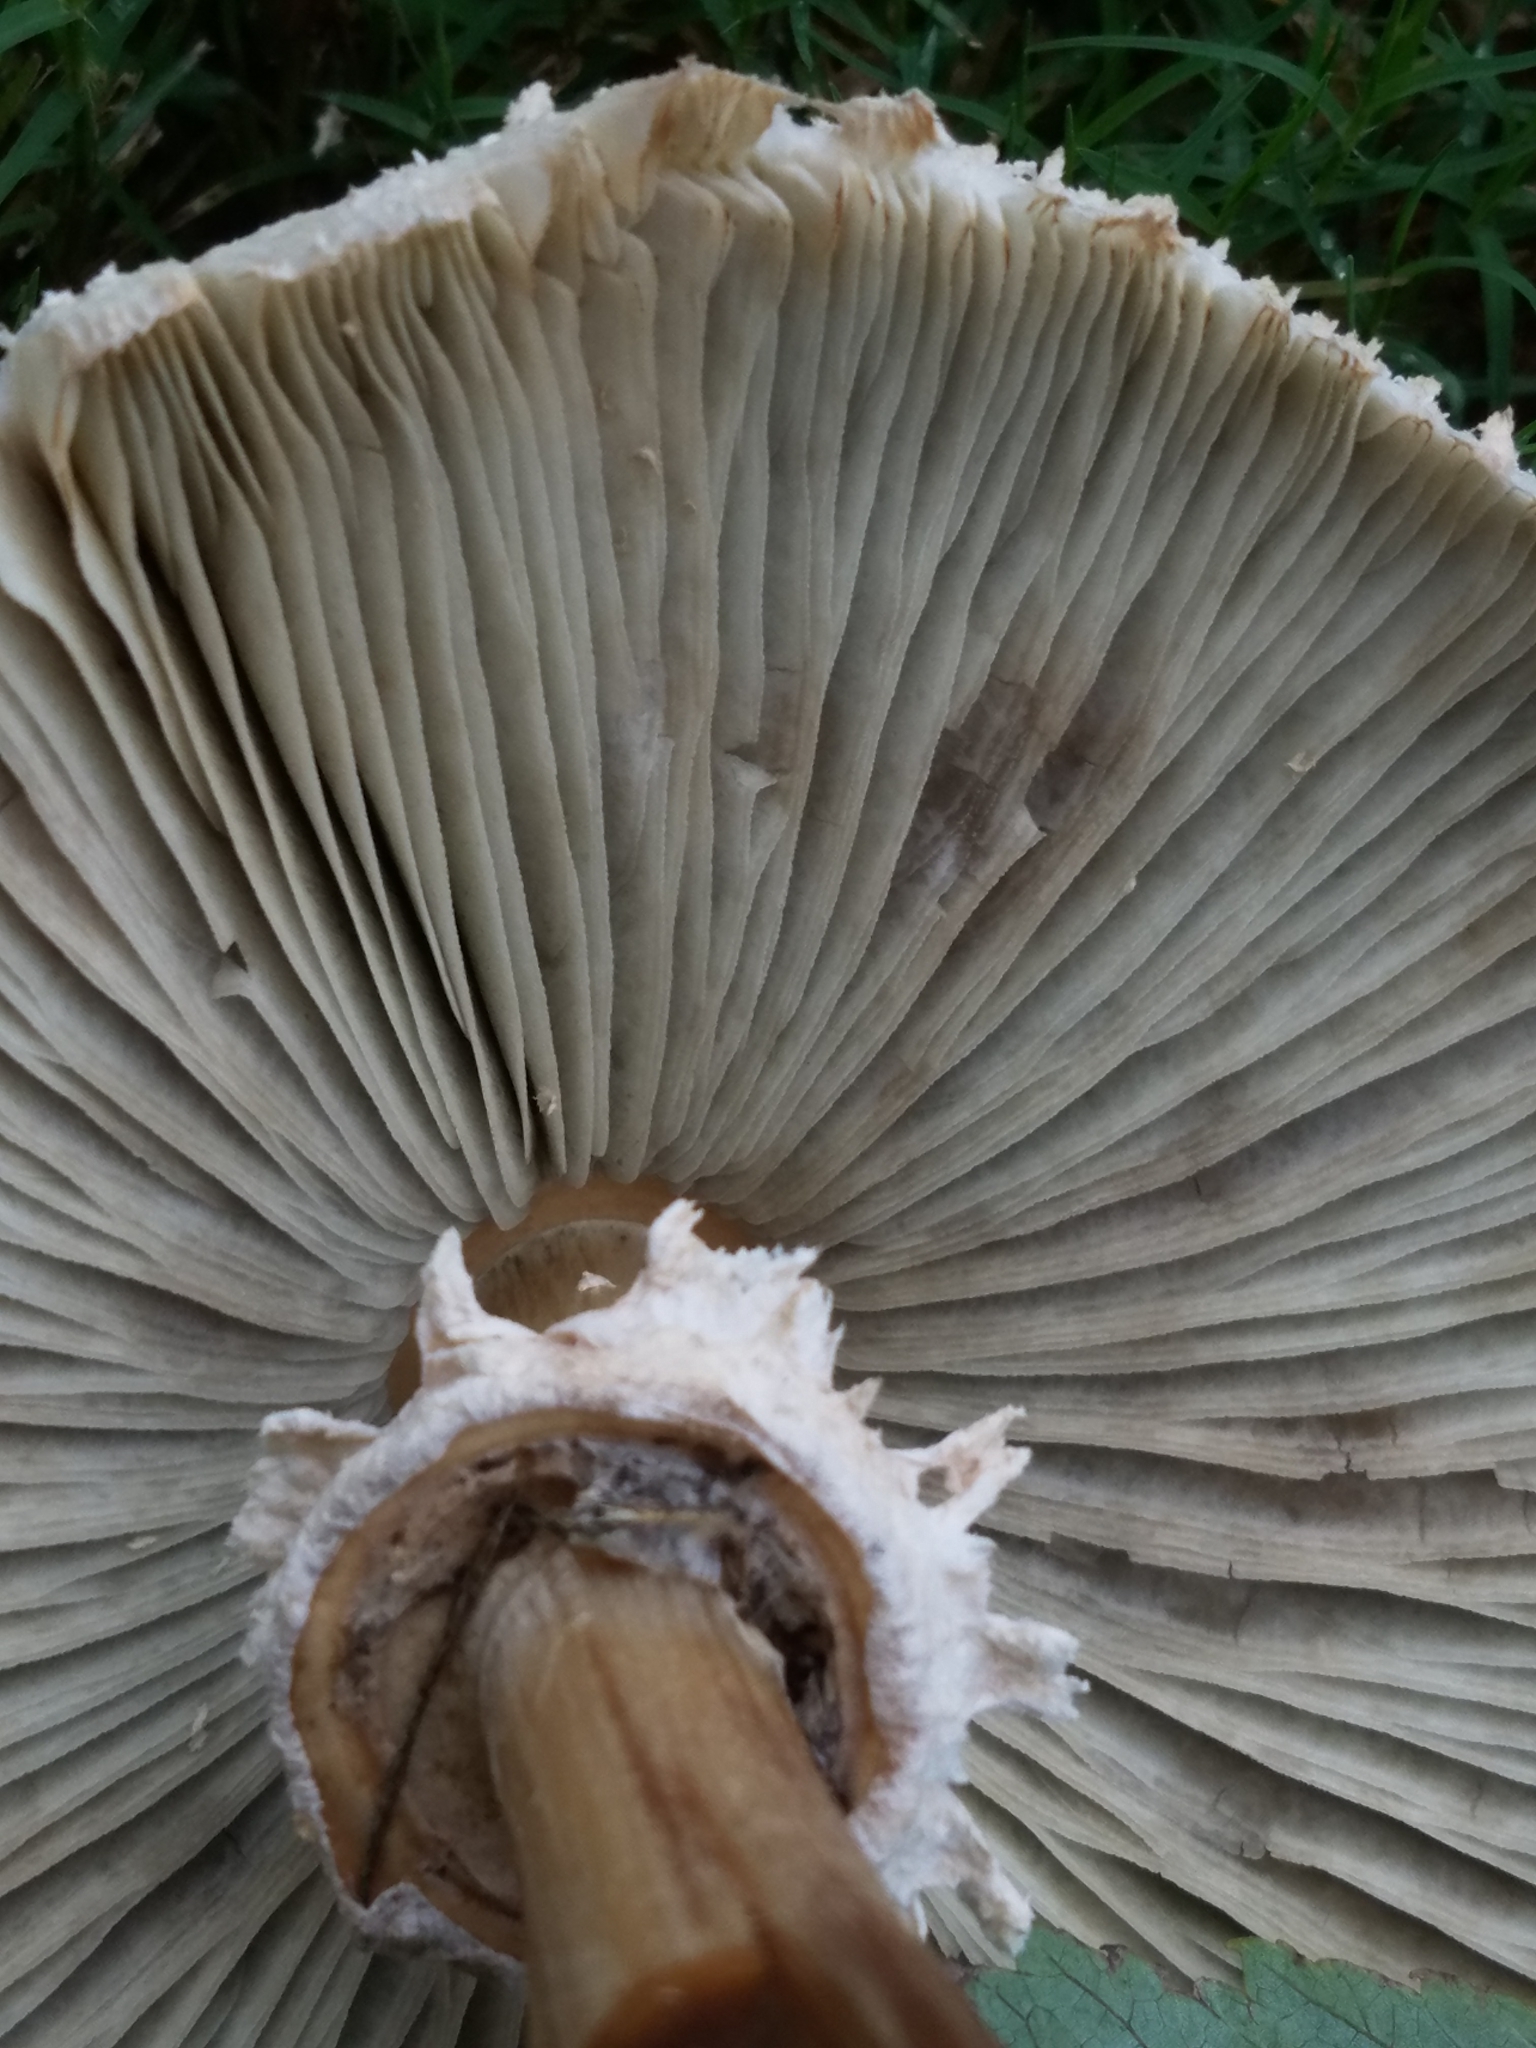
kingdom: Fungi
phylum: Basidiomycota
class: Agaricomycetes
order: Agaricales
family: Agaricaceae
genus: Chlorophyllum
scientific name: Chlorophyllum molybdites
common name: False parasol
